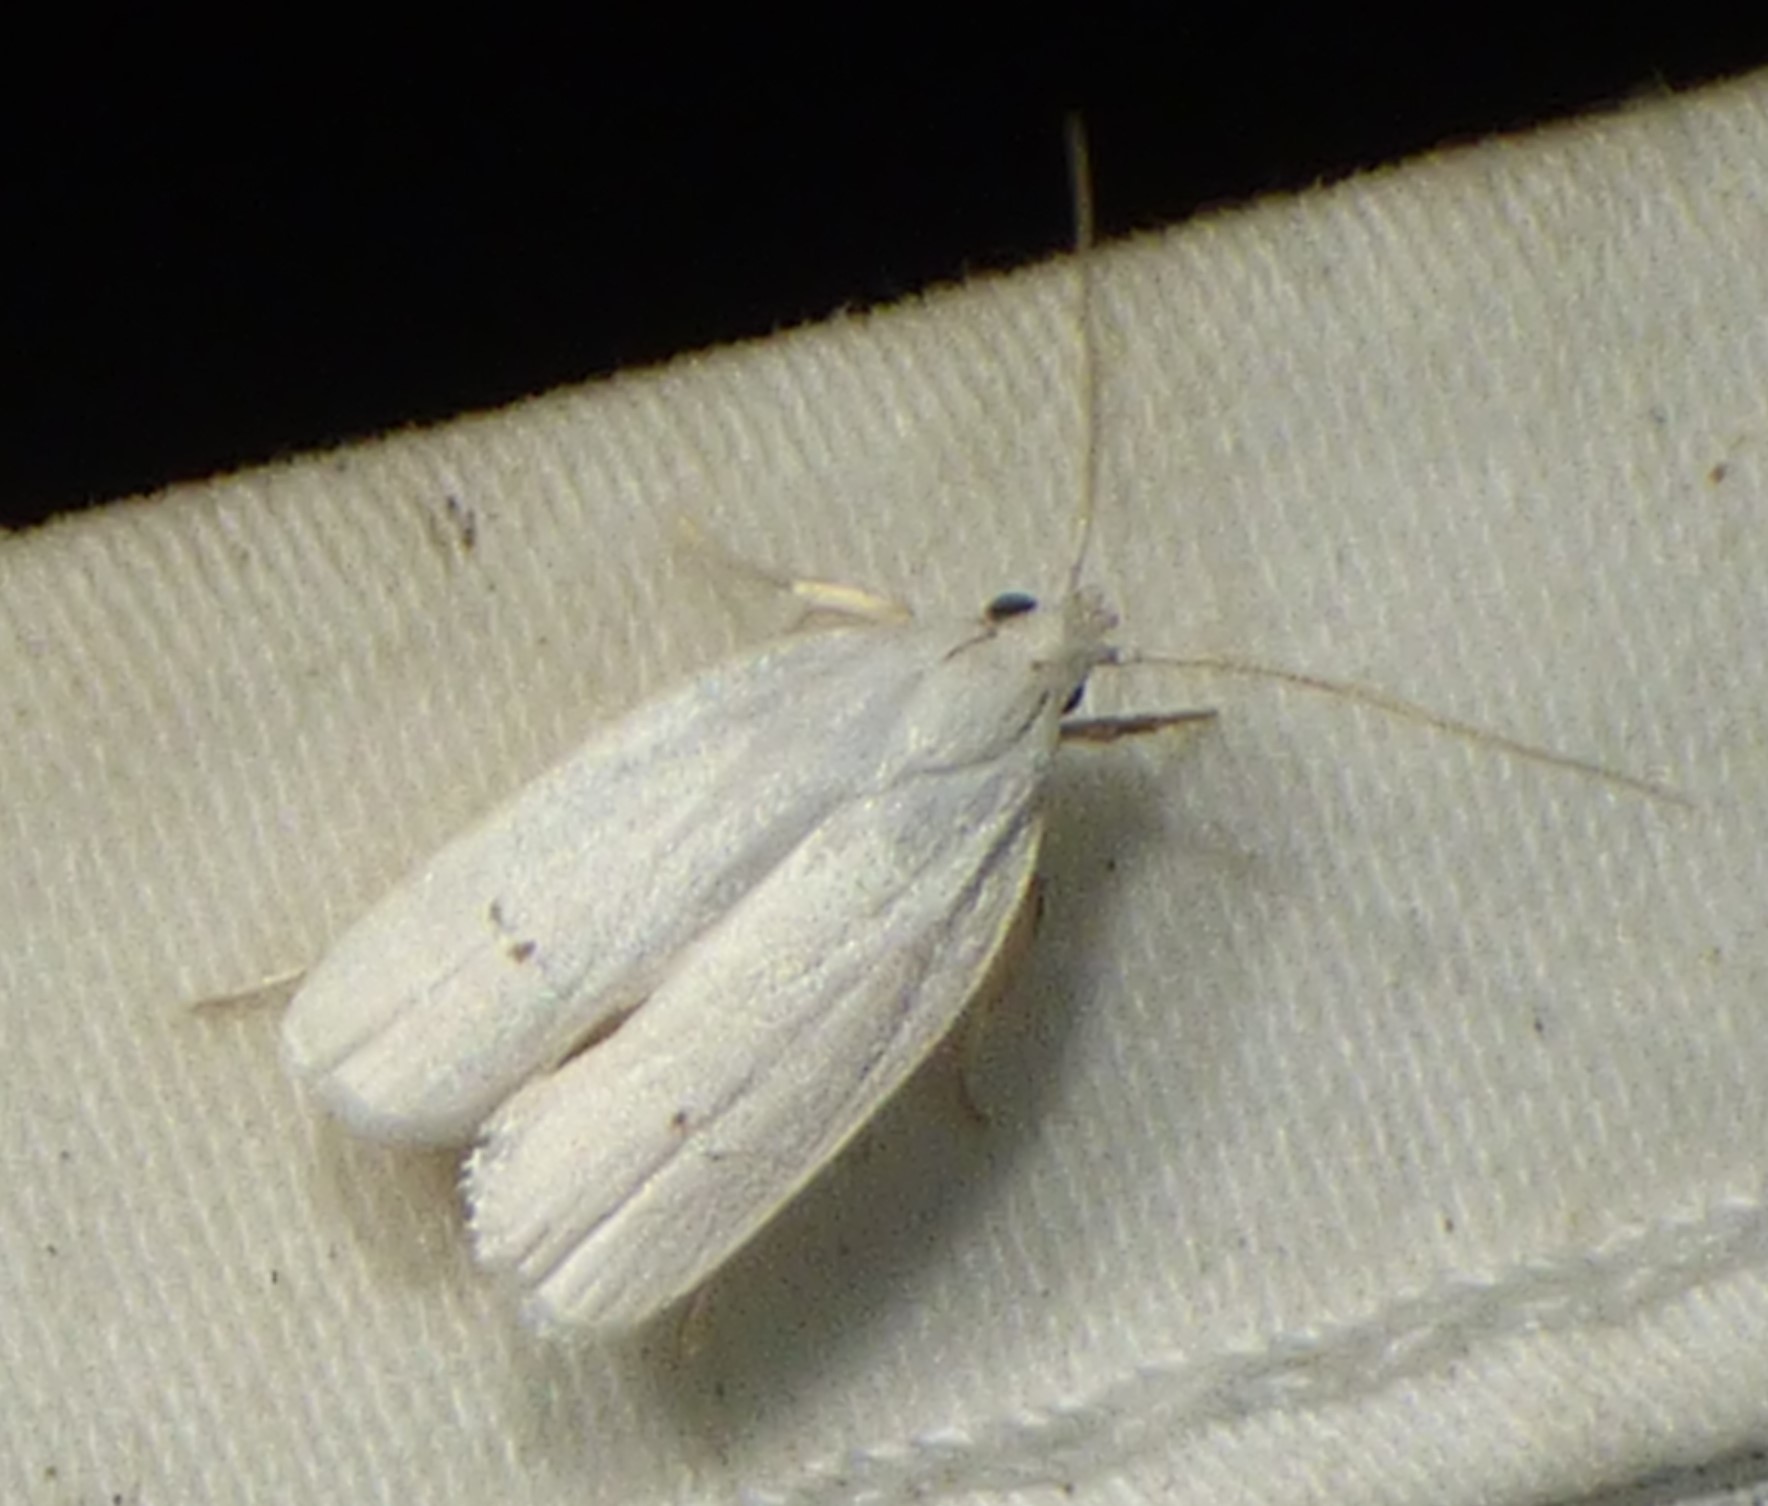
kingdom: Animalia
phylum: Arthropoda
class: Insecta
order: Lepidoptera
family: Depressariidae
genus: Antaeotricha
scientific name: Antaeotricha albulella
